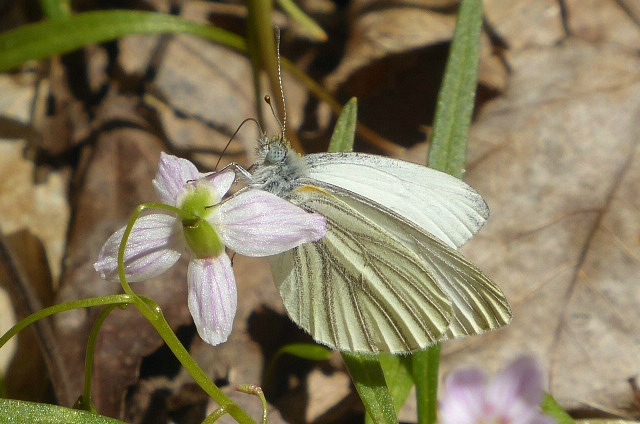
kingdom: Animalia
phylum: Arthropoda
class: Insecta
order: Lepidoptera
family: Pieridae
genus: Pieris
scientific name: Pieris virginiensis
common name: West virginia white
